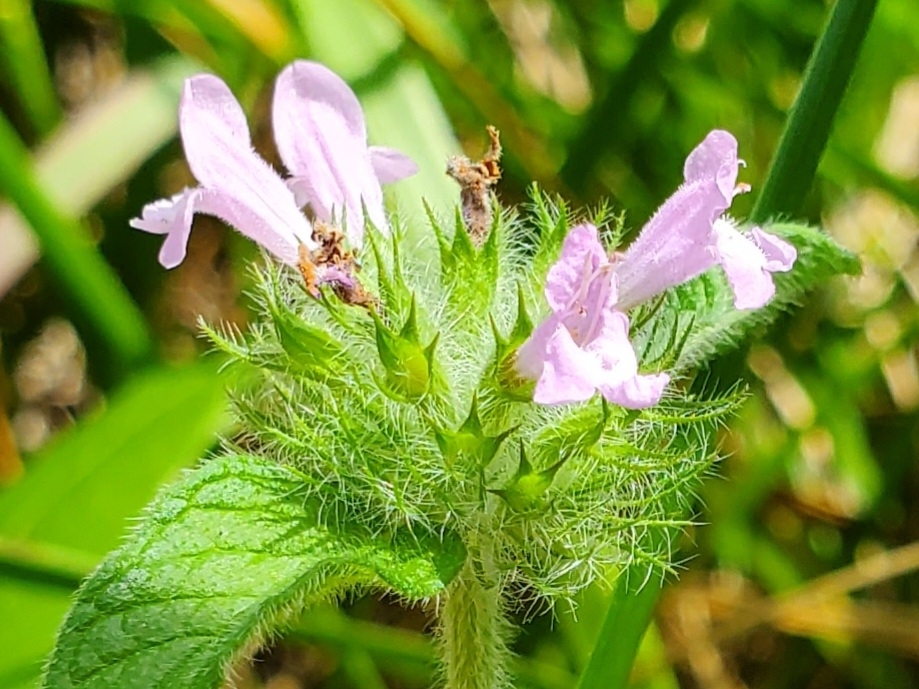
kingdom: Plantae
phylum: Tracheophyta
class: Magnoliopsida
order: Lamiales
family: Lamiaceae
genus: Clinopodium
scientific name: Clinopodium vulgare
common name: Wild basil
